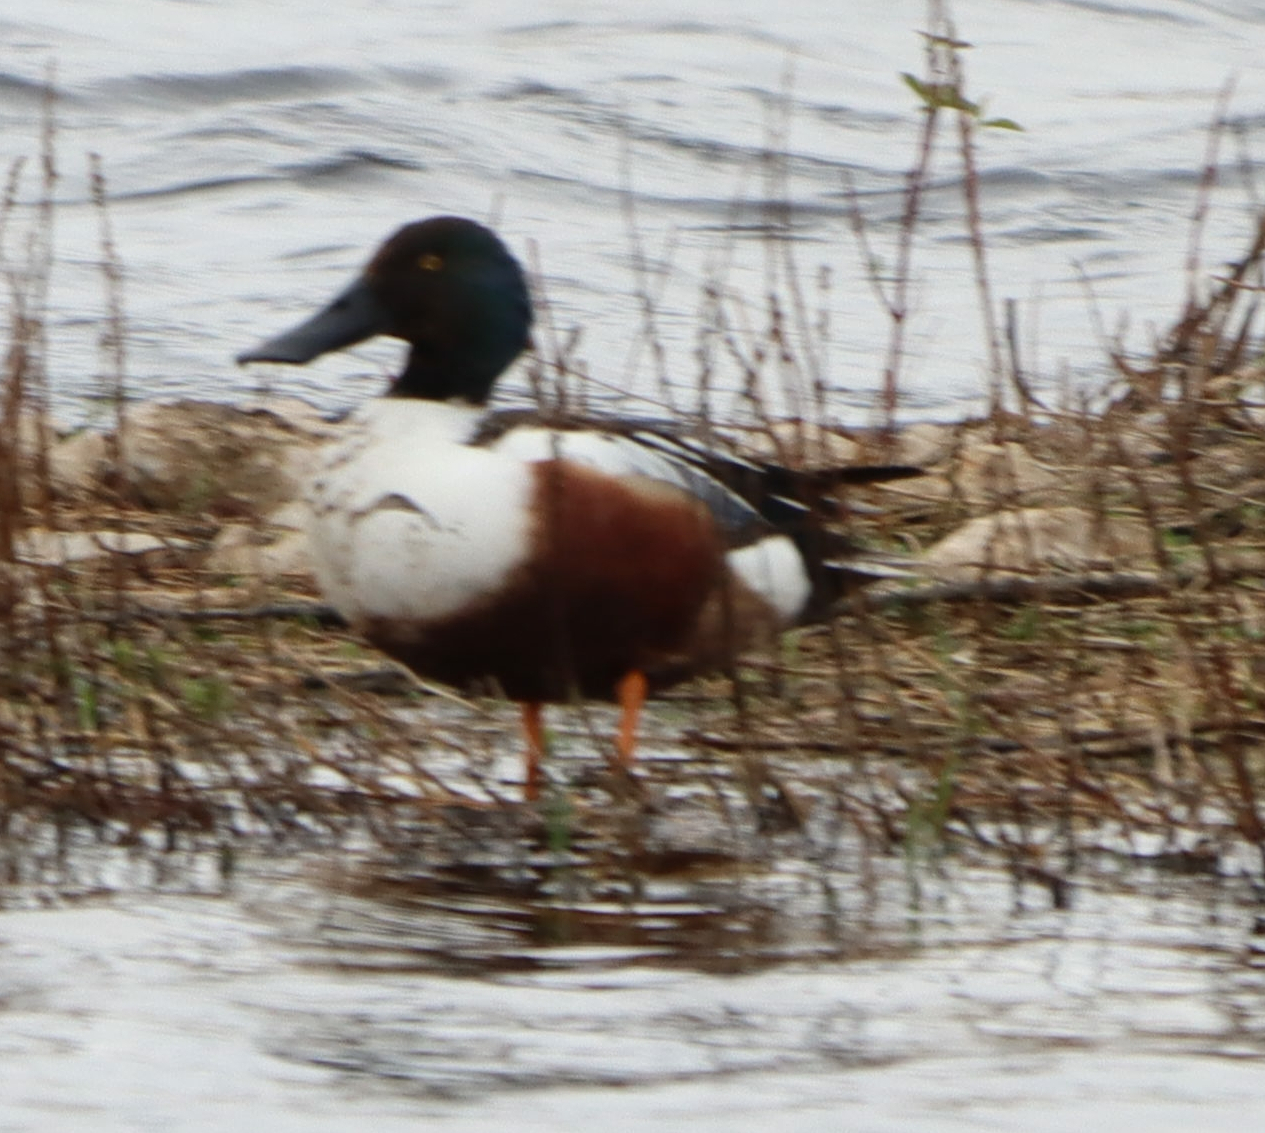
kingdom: Animalia
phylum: Chordata
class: Aves
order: Anseriformes
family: Anatidae
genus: Spatula
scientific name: Spatula clypeata
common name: Northern shoveler
